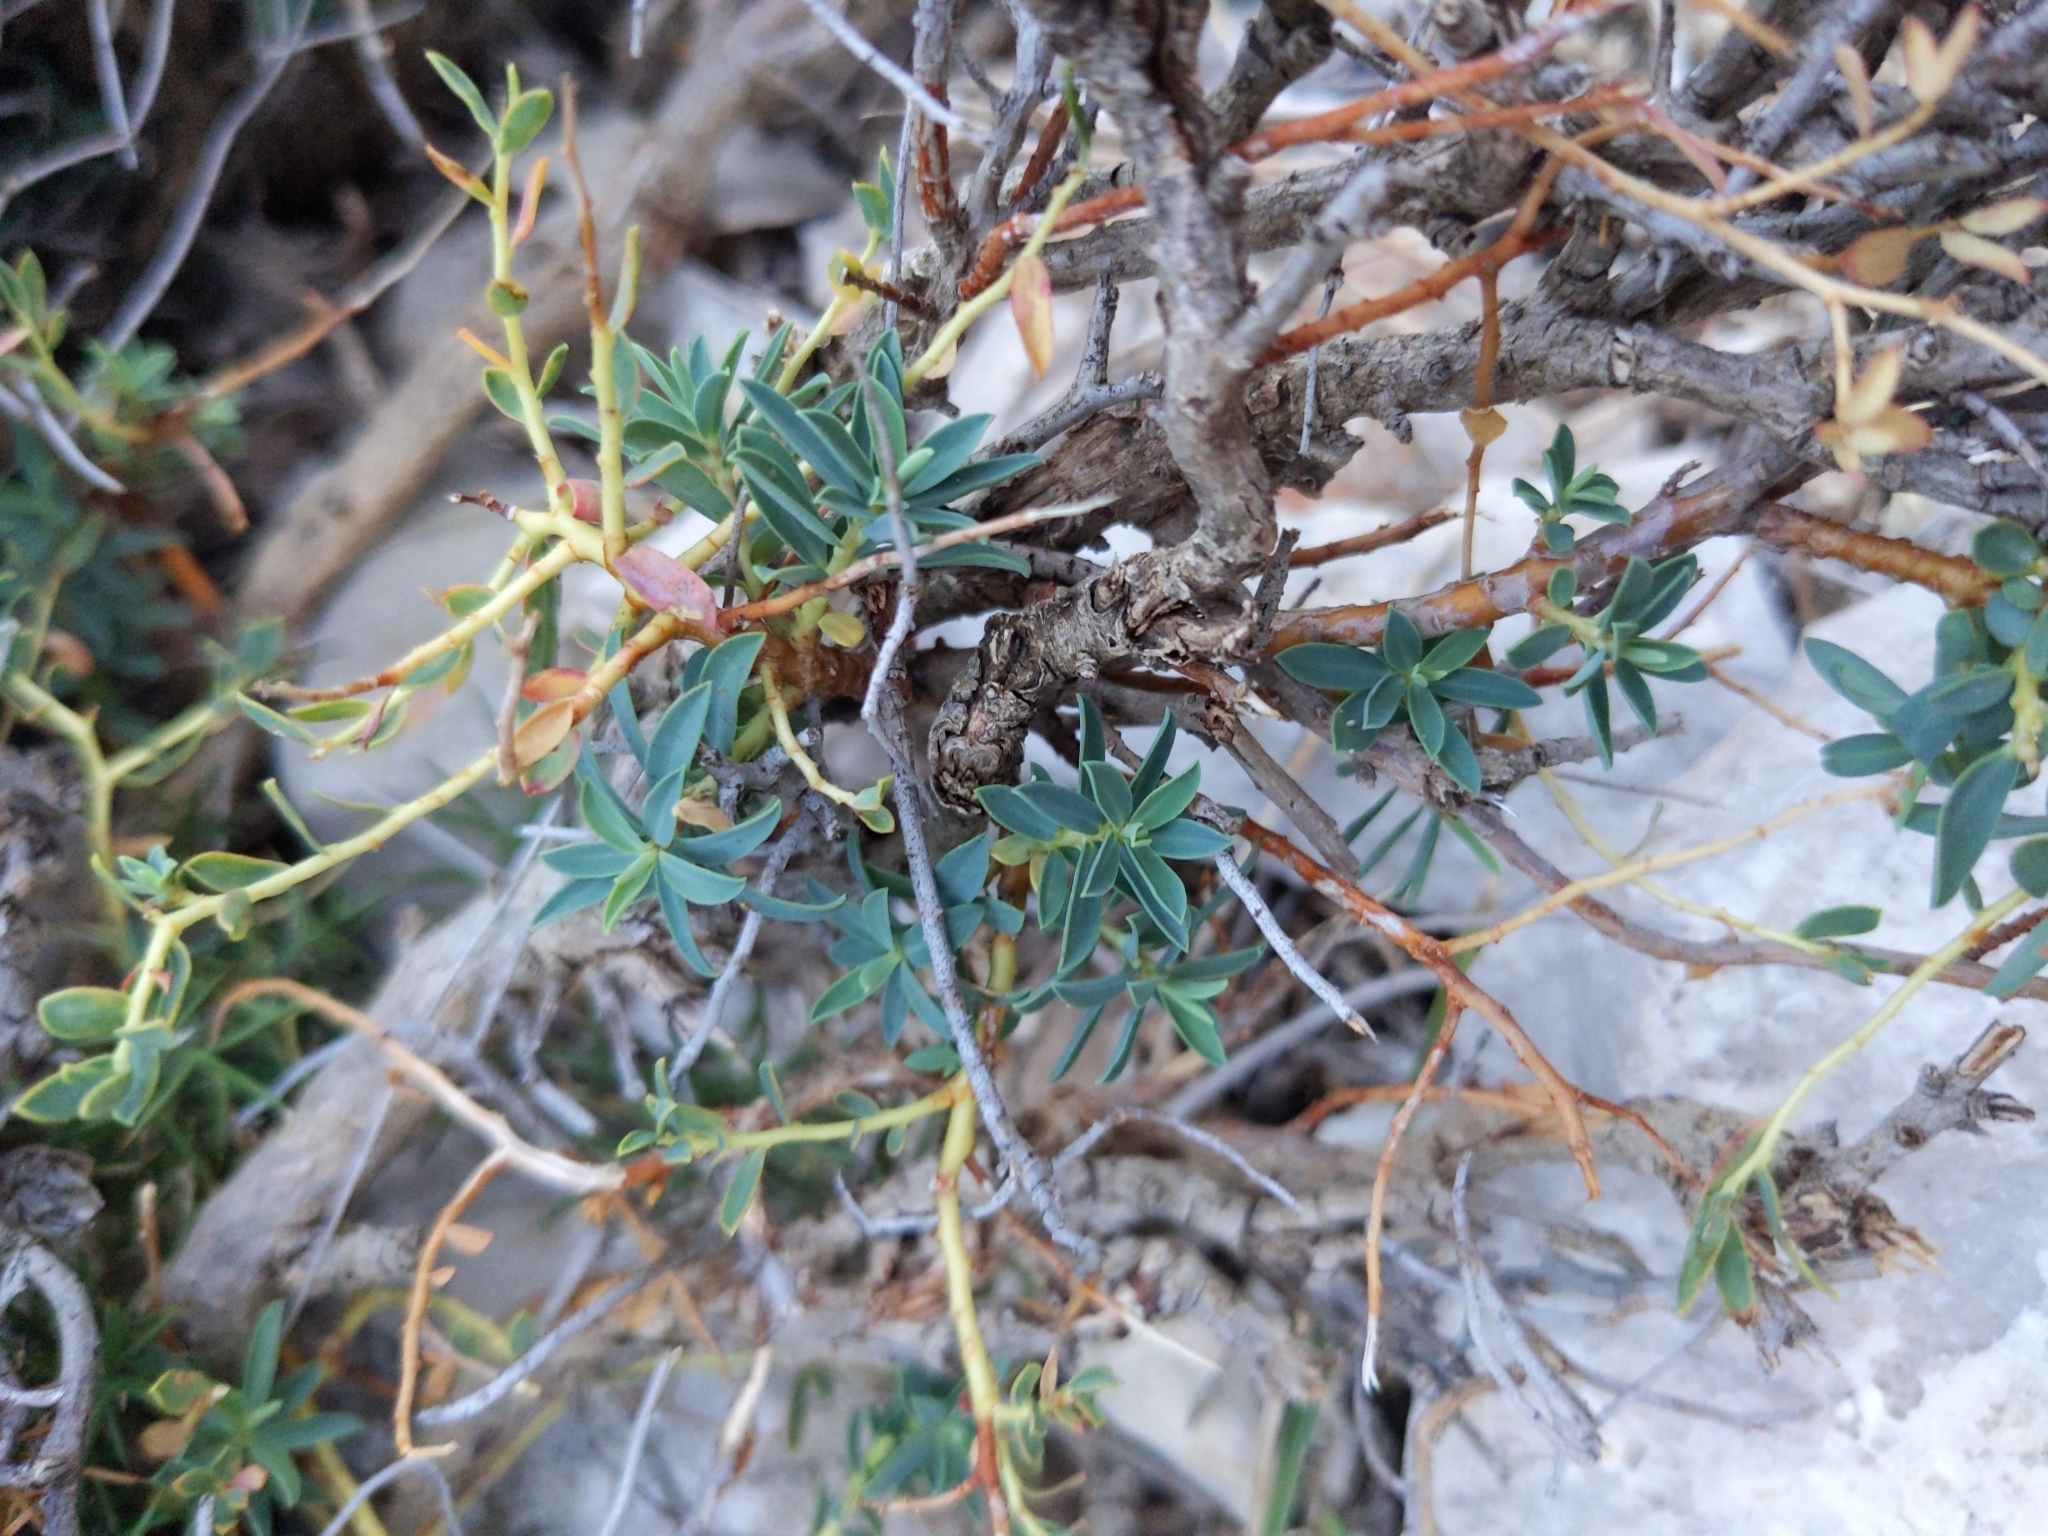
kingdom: Plantae
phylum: Tracheophyta
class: Magnoliopsida
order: Malpighiales
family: Euphorbiaceae
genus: Euphorbia
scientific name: Euphorbia spinosa
